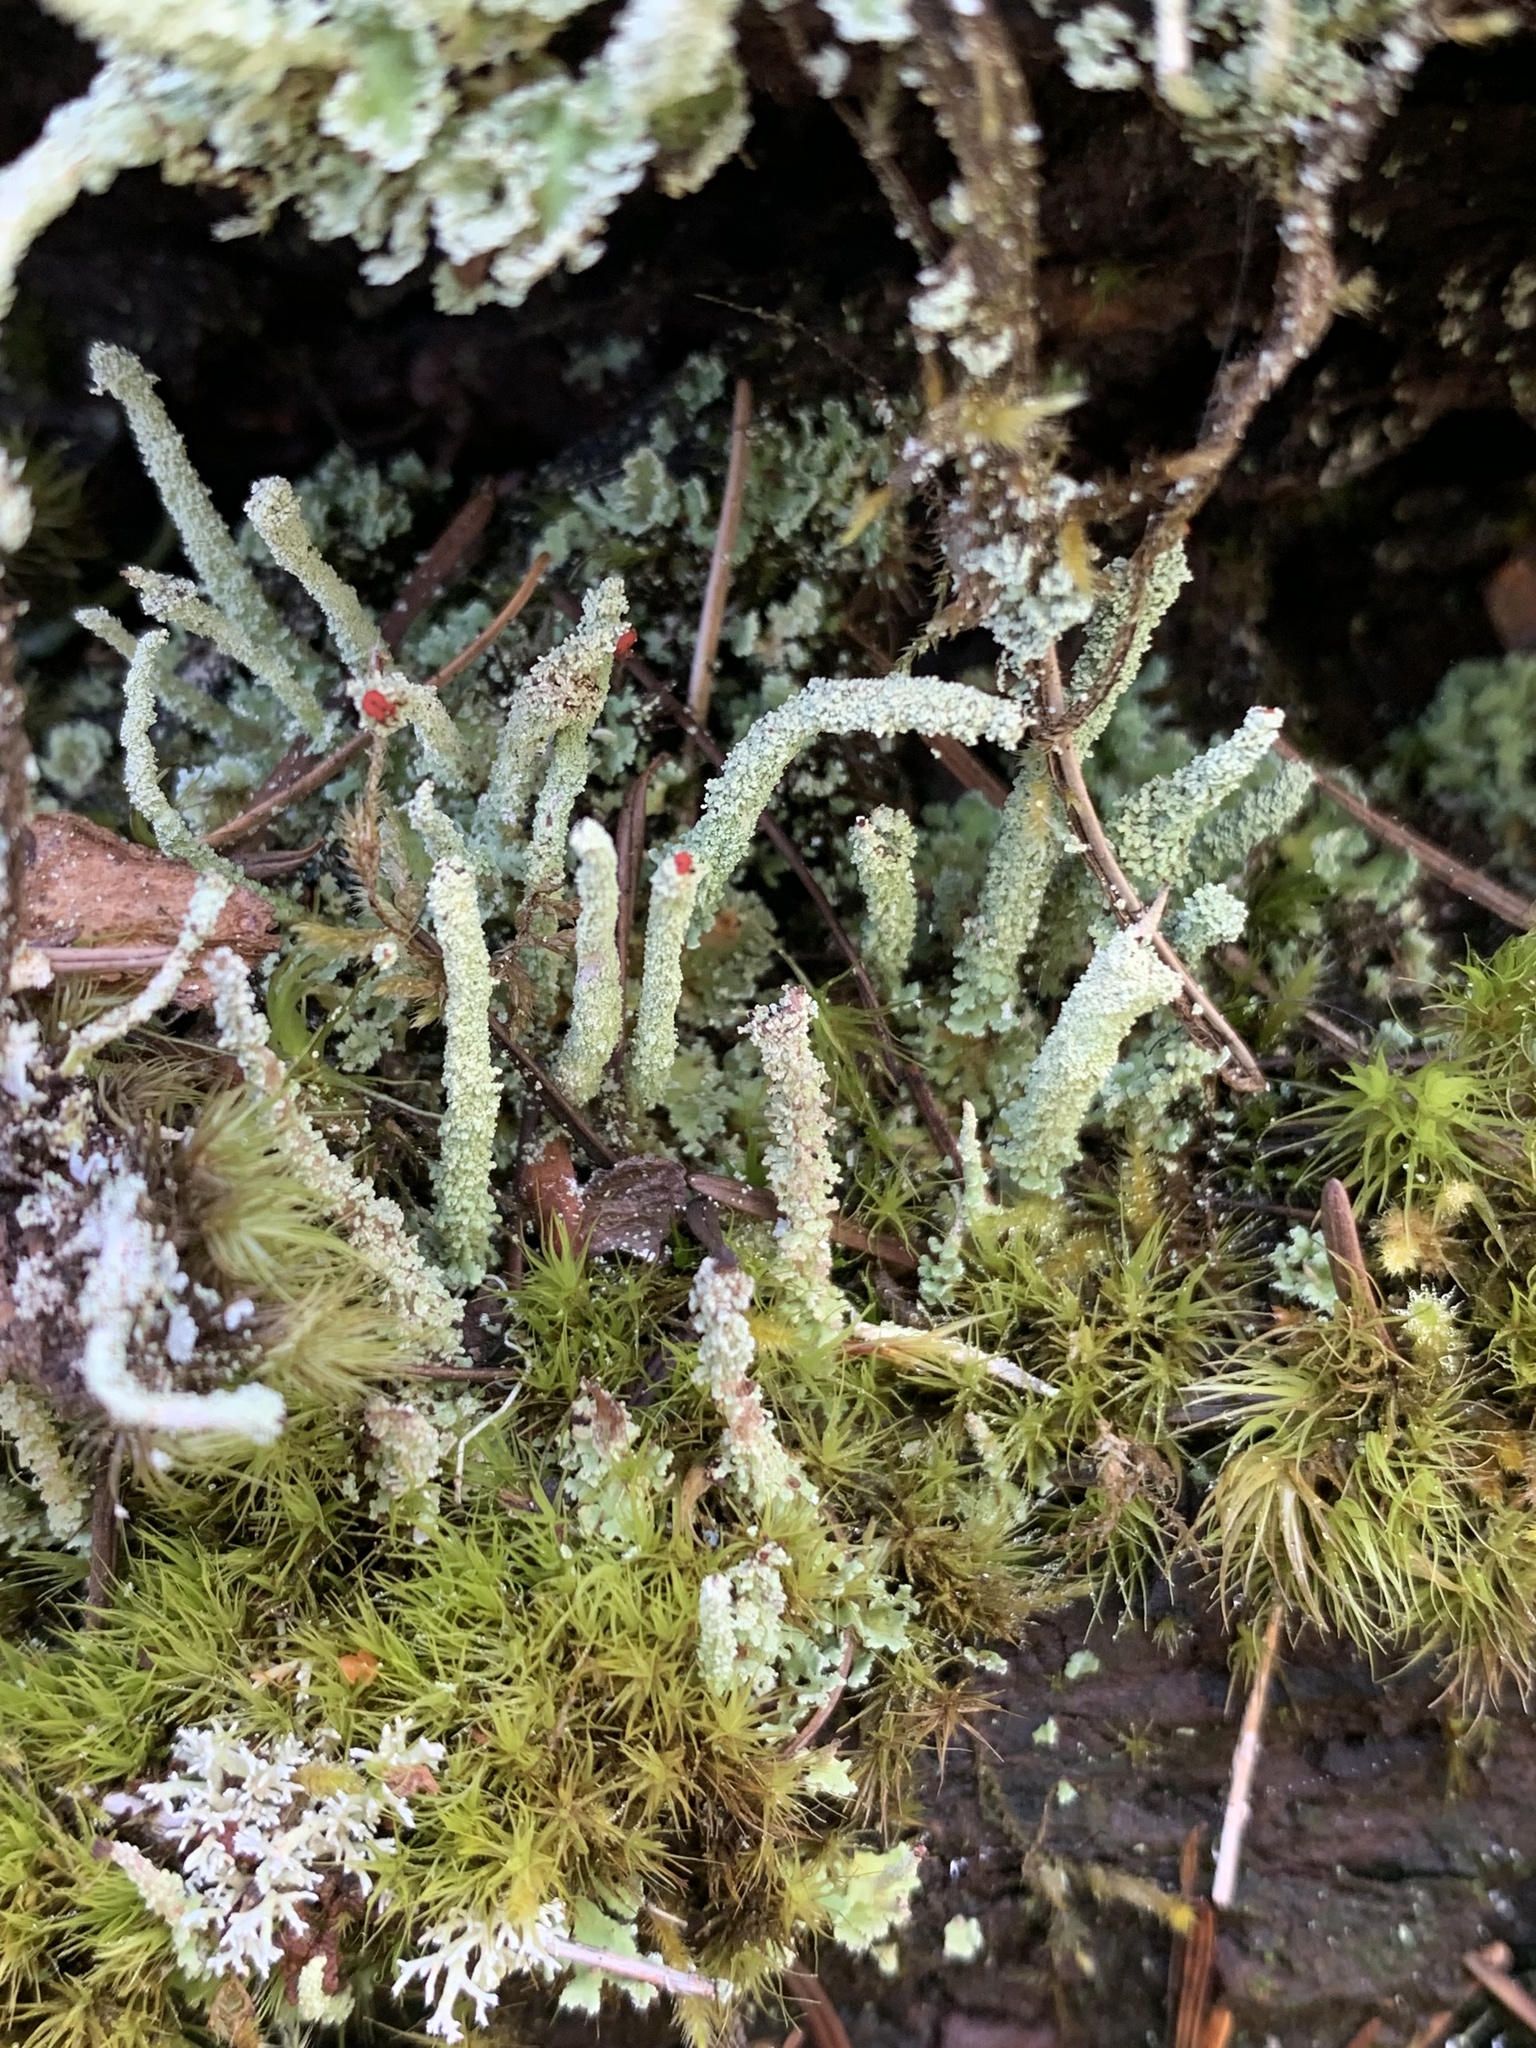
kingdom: Fungi
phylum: Ascomycota
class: Lecanoromycetes
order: Lecanorales
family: Cladoniaceae
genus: Cladonia
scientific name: Cladonia bellidiflora
